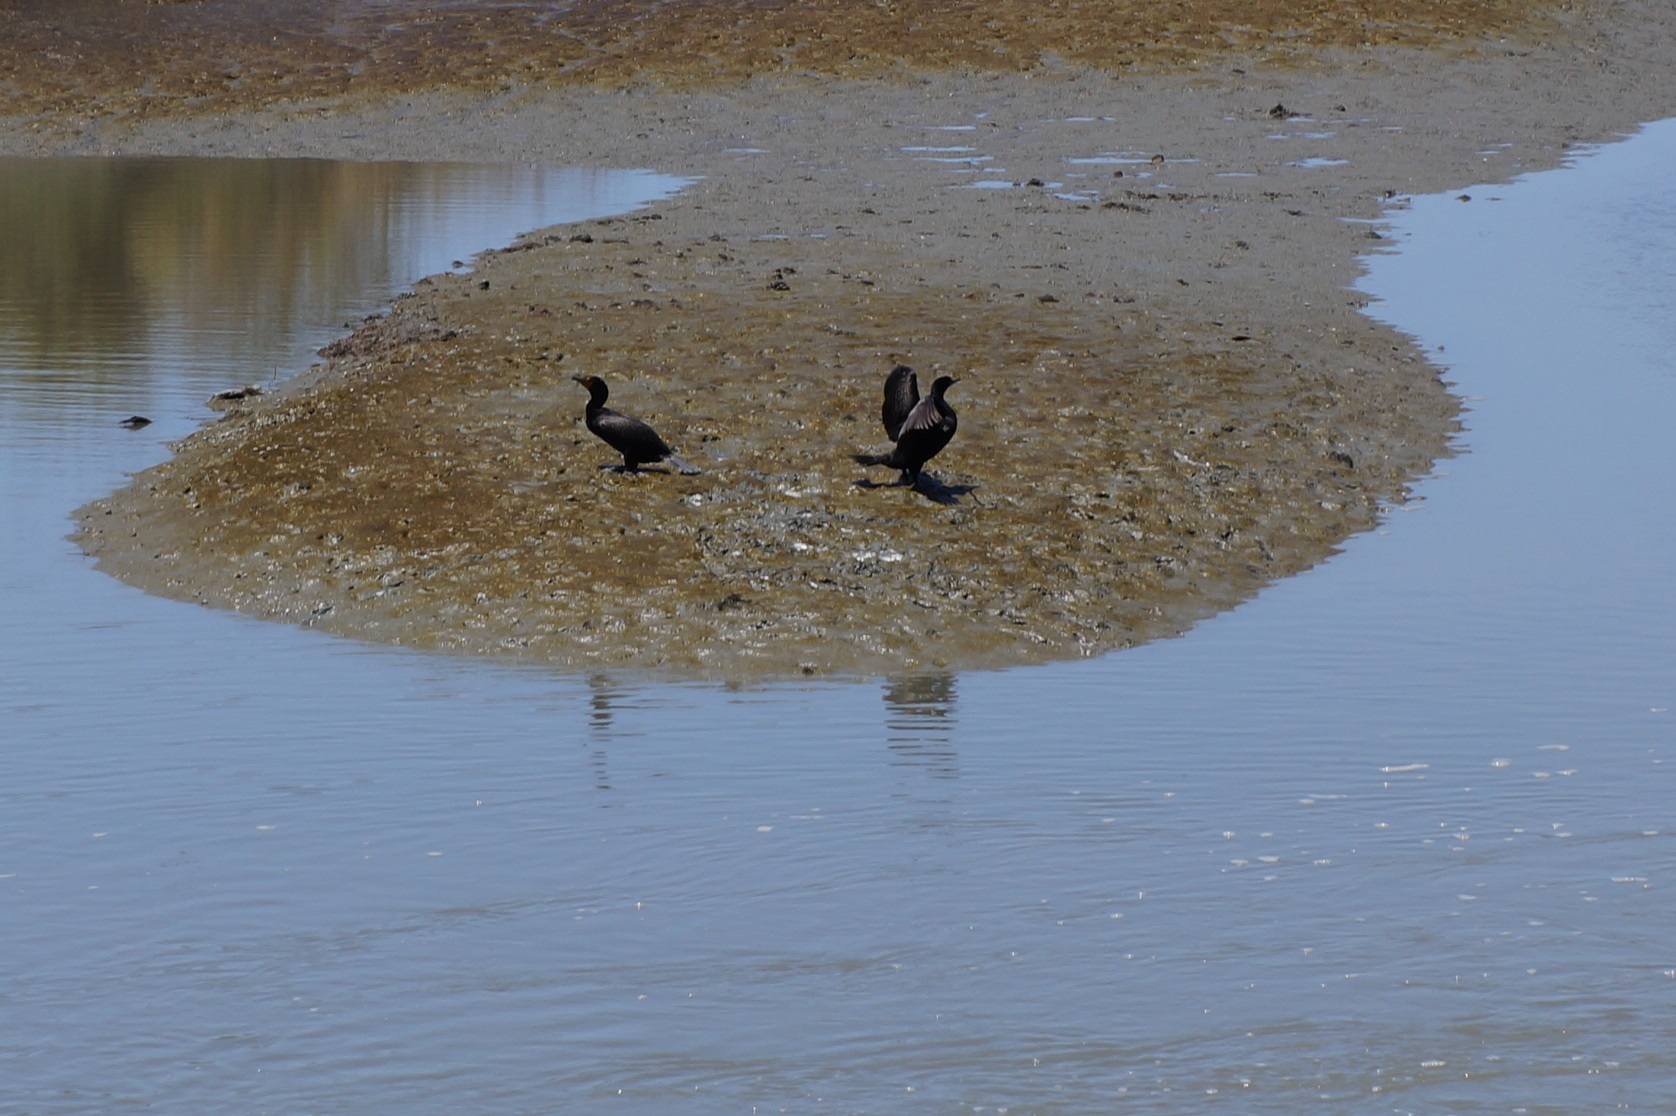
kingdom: Animalia
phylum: Chordata
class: Aves
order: Suliformes
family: Phalacrocoracidae
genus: Phalacrocorax
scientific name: Phalacrocorax auritus
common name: Double-crested cormorant
